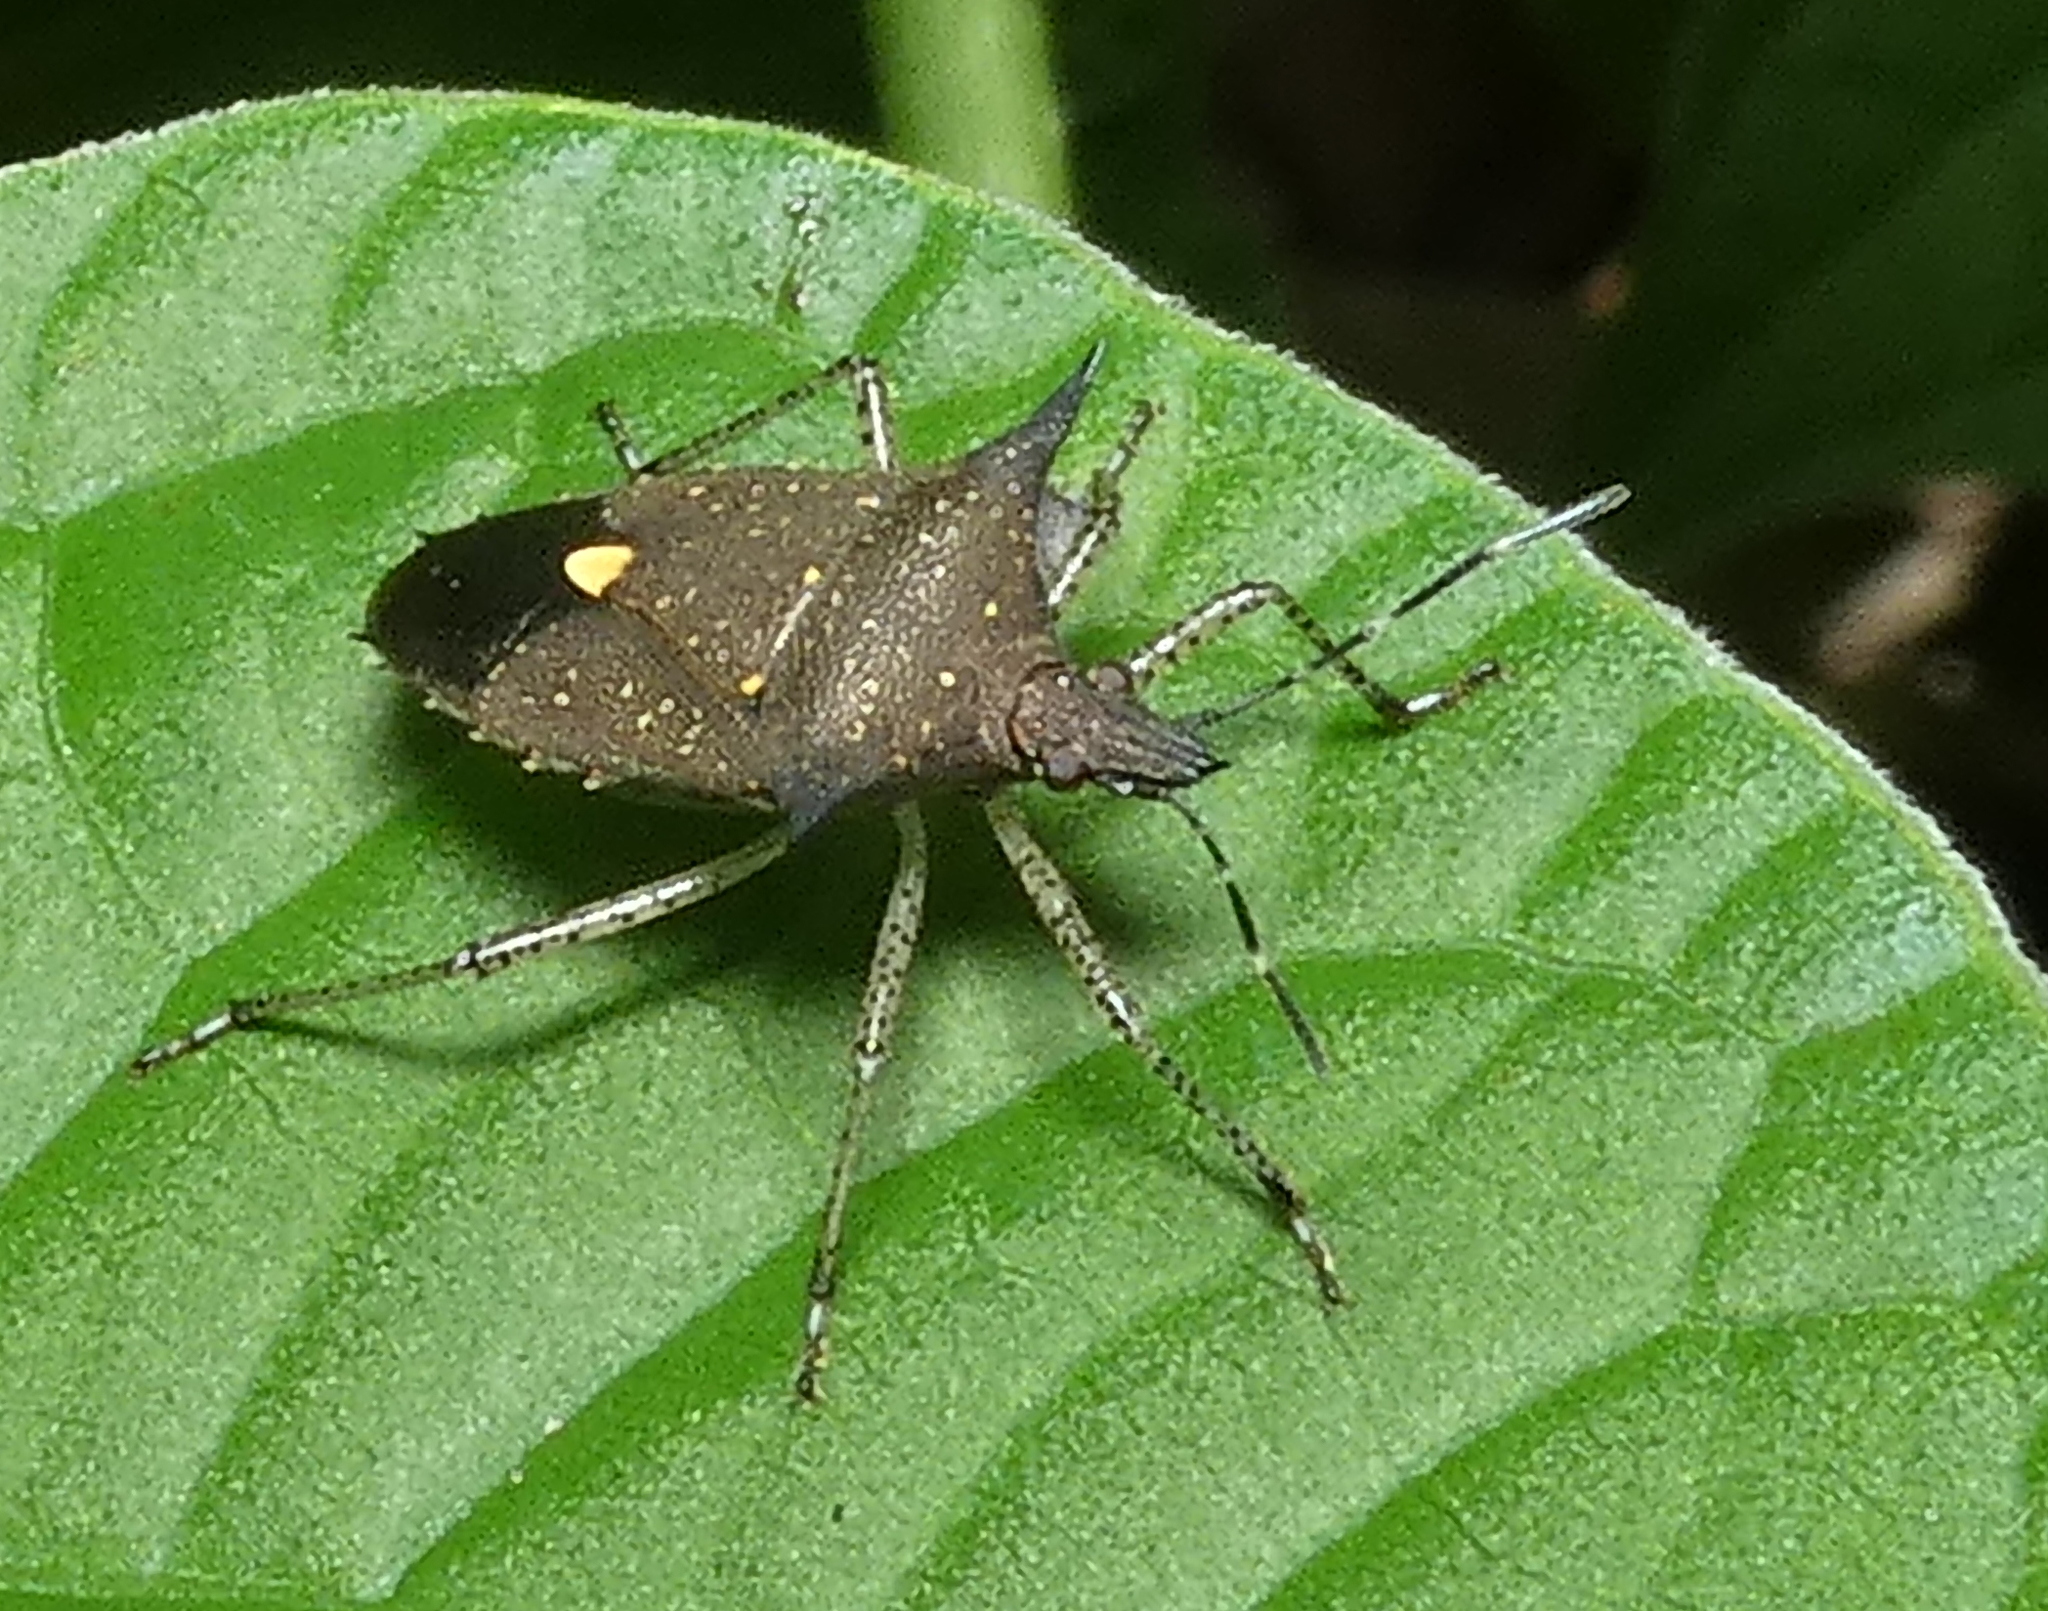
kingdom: Animalia
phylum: Arthropoda
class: Insecta
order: Hemiptera
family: Pentatomidae
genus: Proxys
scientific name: Proxys albopunctulatus
